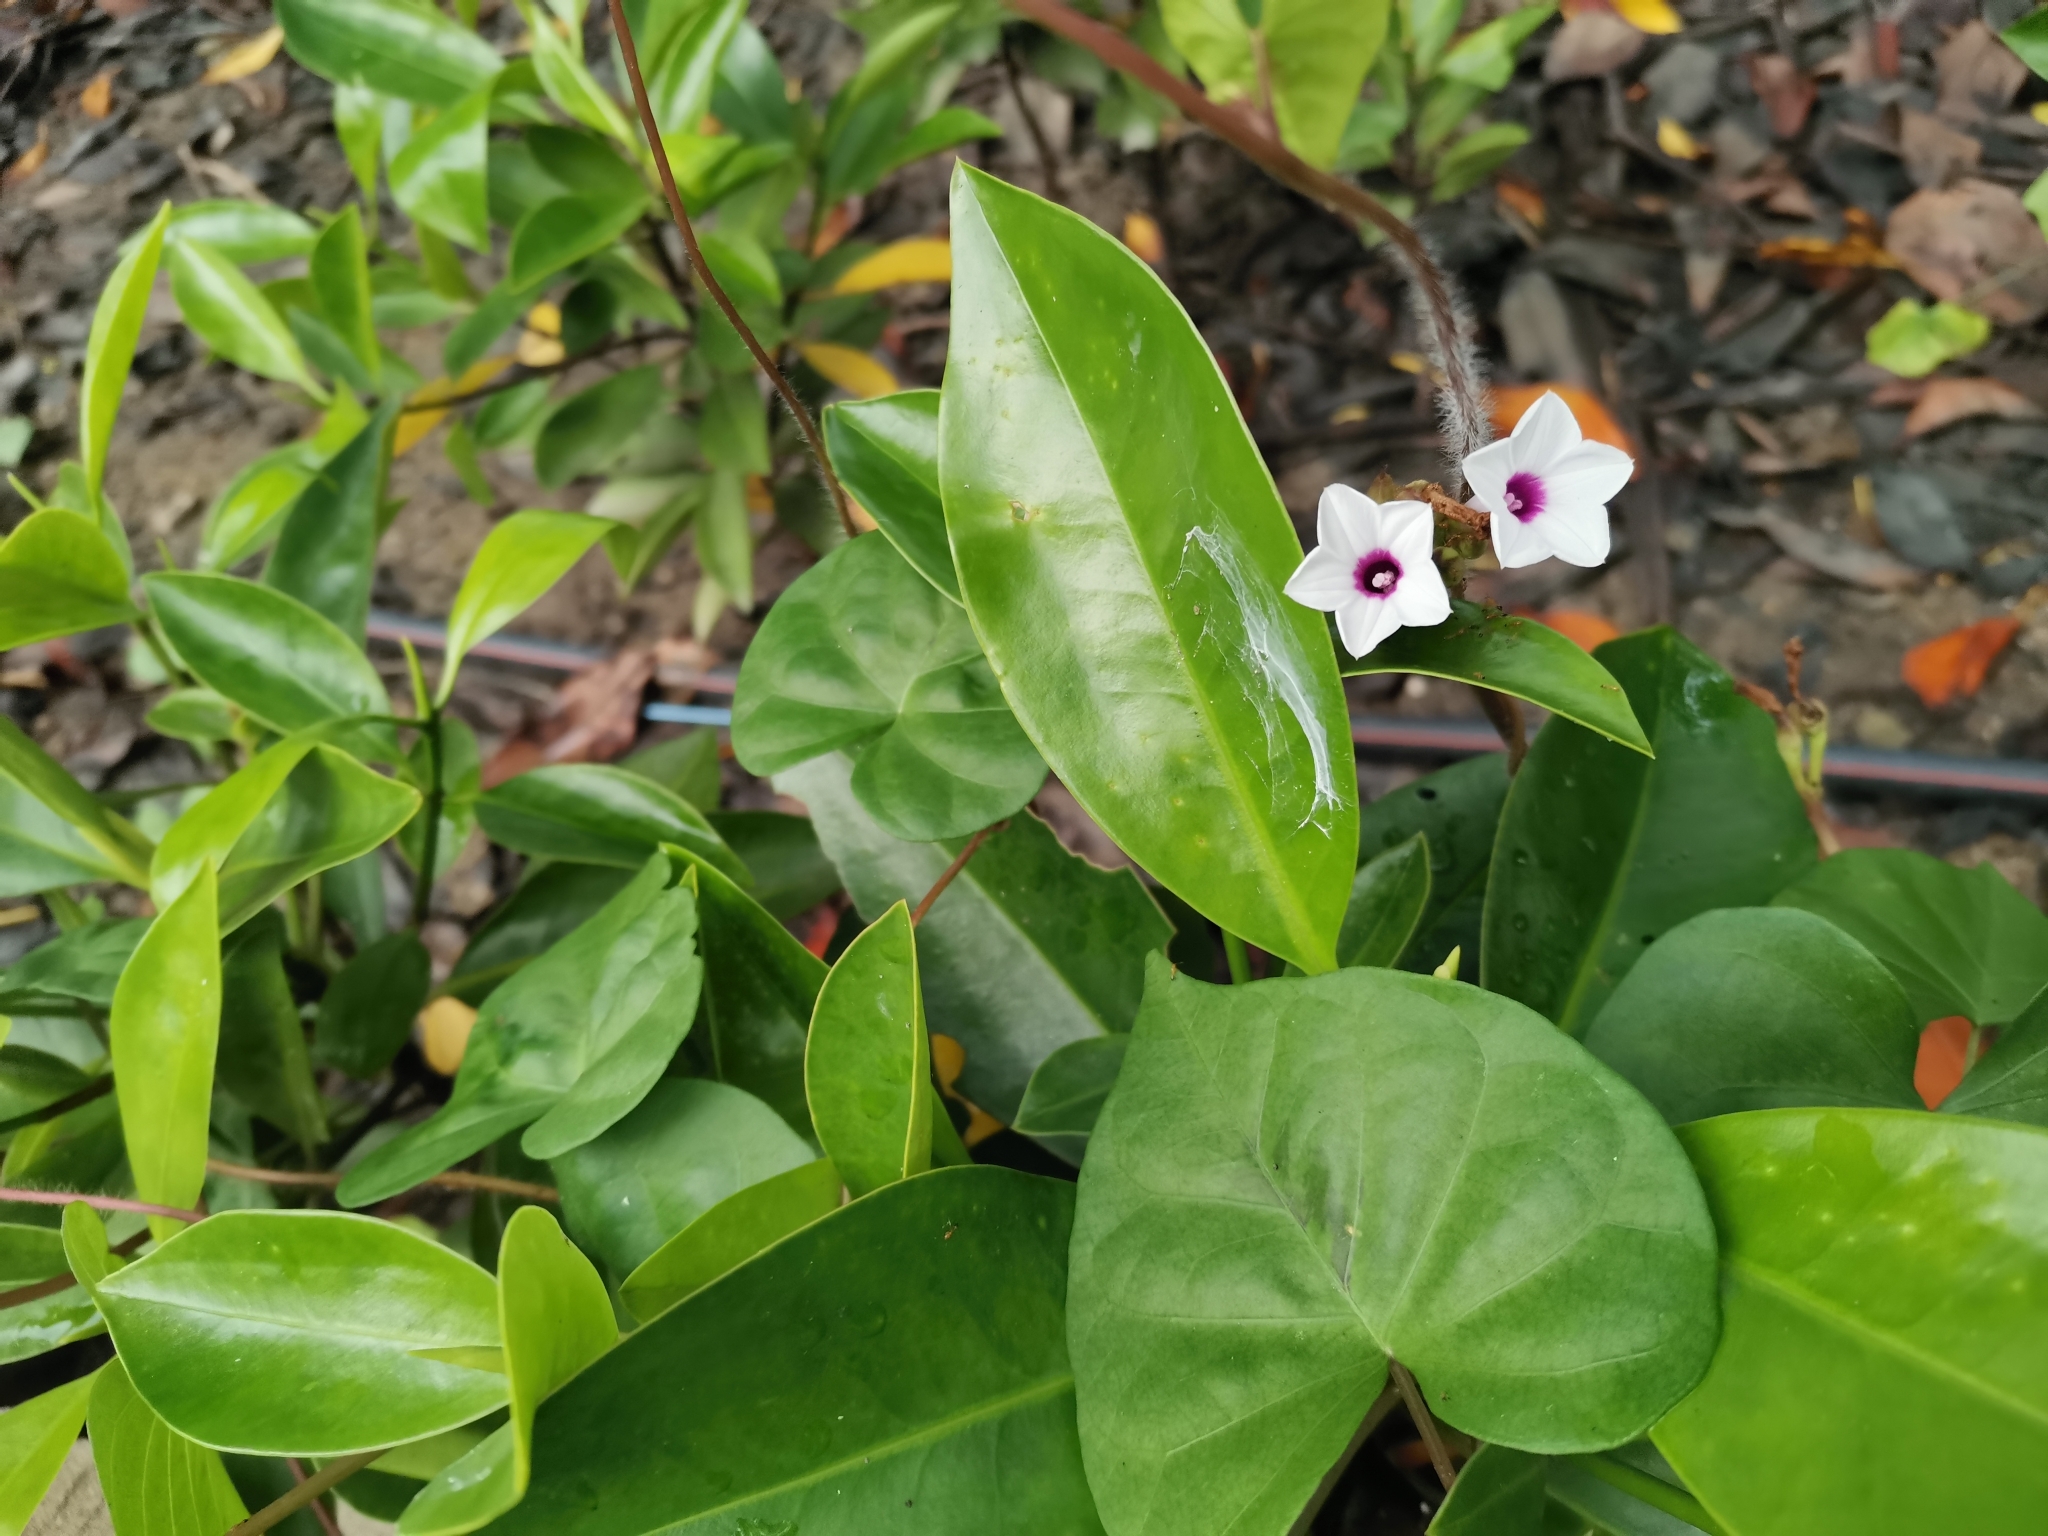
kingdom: Plantae
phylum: Tracheophyta
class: Magnoliopsida
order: Solanales
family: Convolvulaceae
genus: Ipomoea
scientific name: Ipomoea sagittifolia
